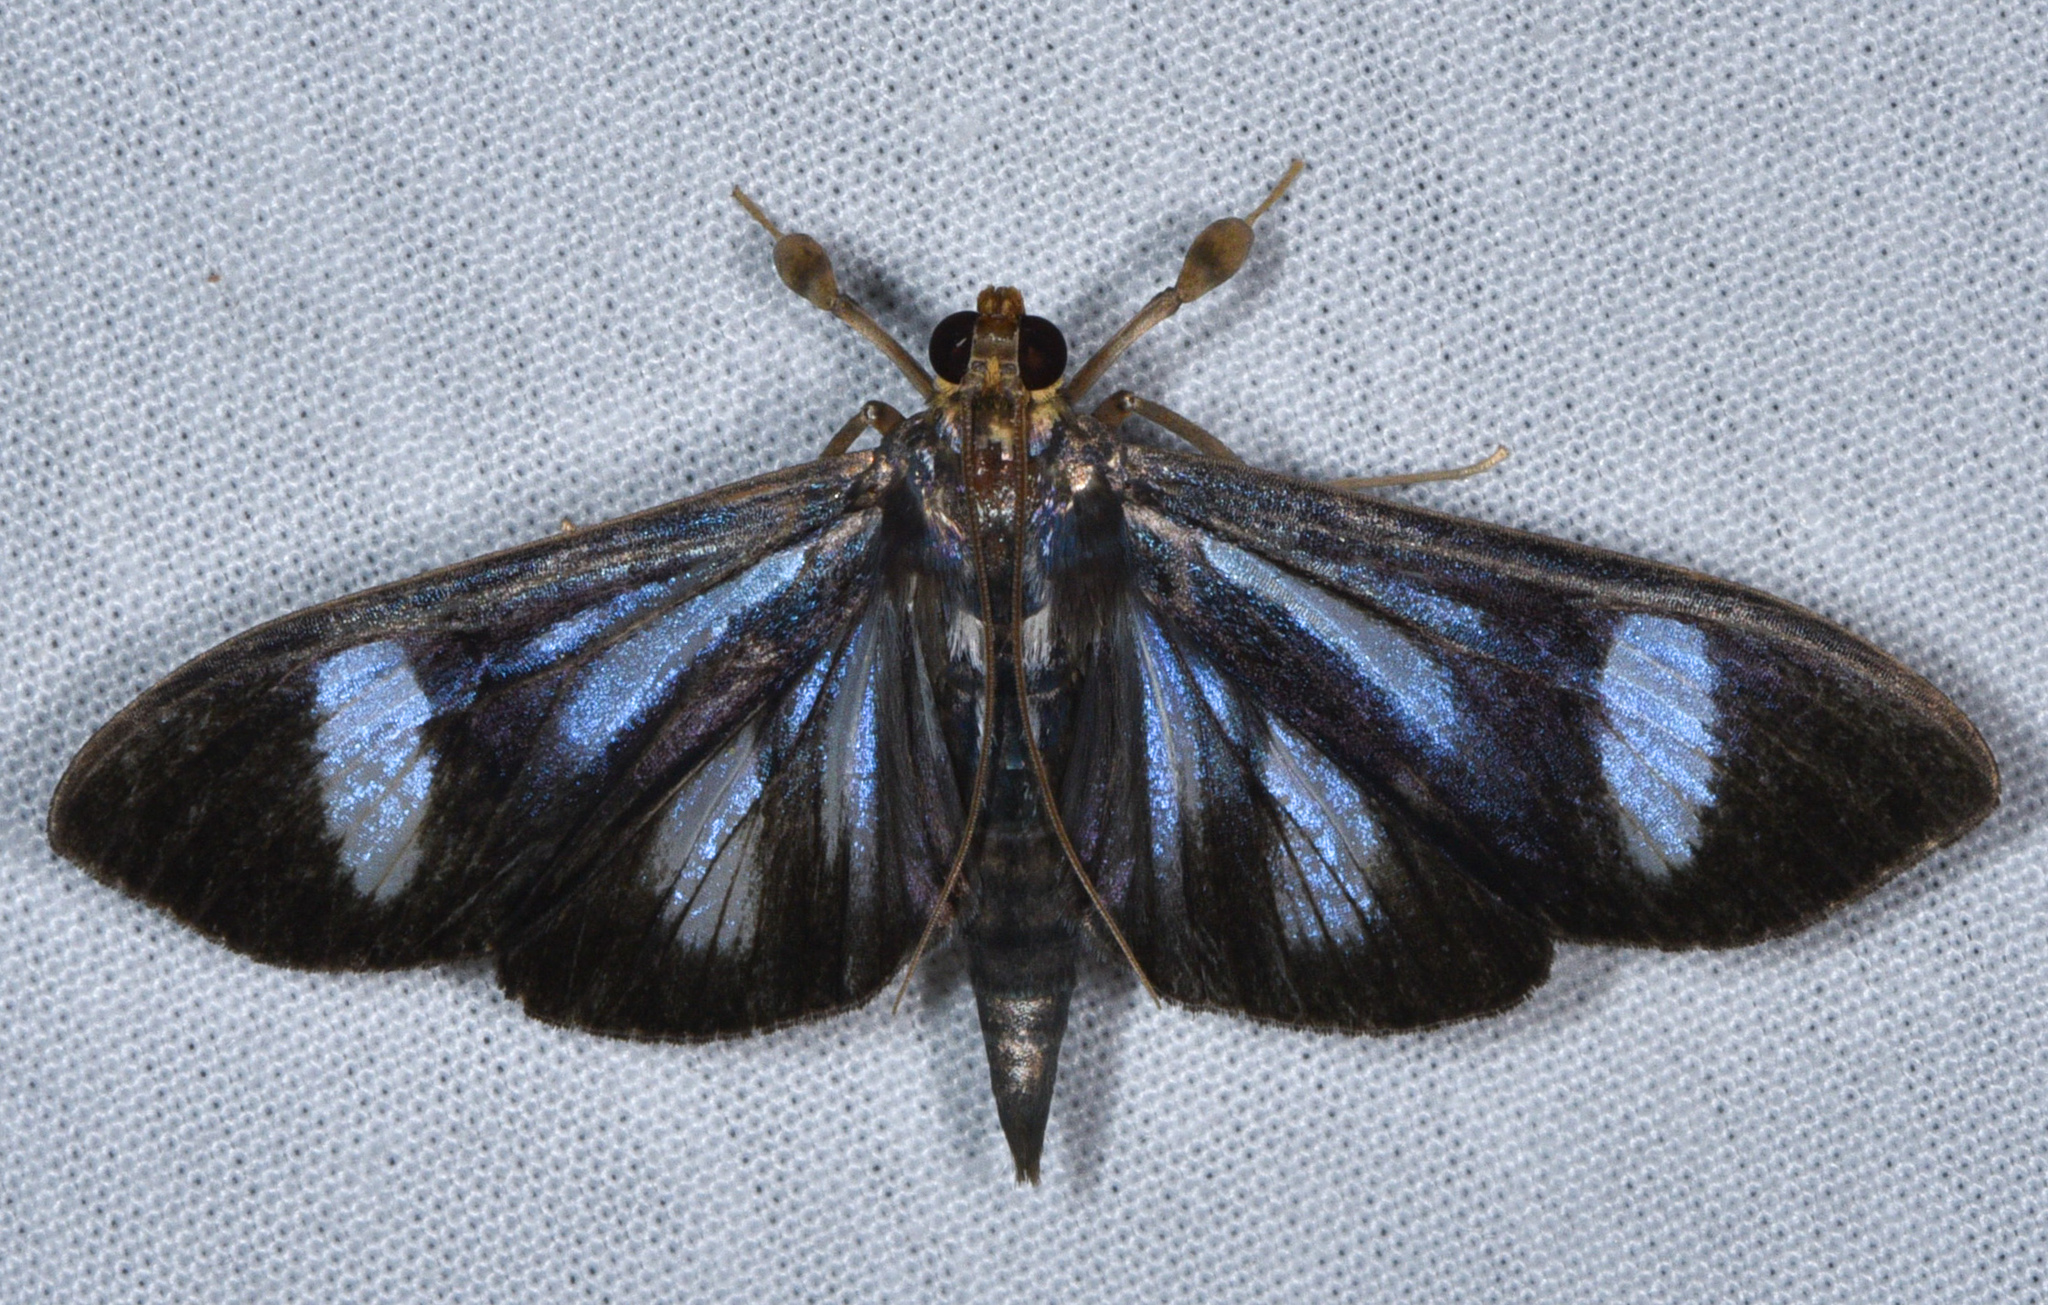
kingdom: Animalia
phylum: Arthropoda
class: Insecta
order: Lepidoptera
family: Crambidae
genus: Phostria
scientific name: Phostria euagra
